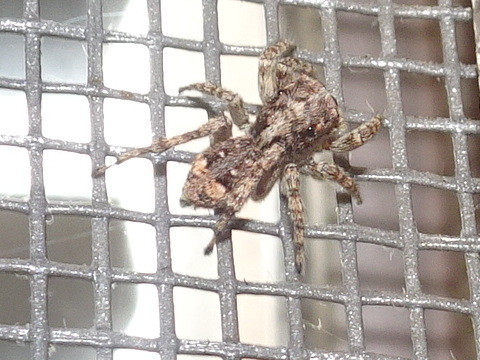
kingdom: Animalia
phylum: Arthropoda
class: Arachnida
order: Araneae
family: Salticidae
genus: Attulus
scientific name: Attulus fasciger
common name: Asiatic wall jumping spider
